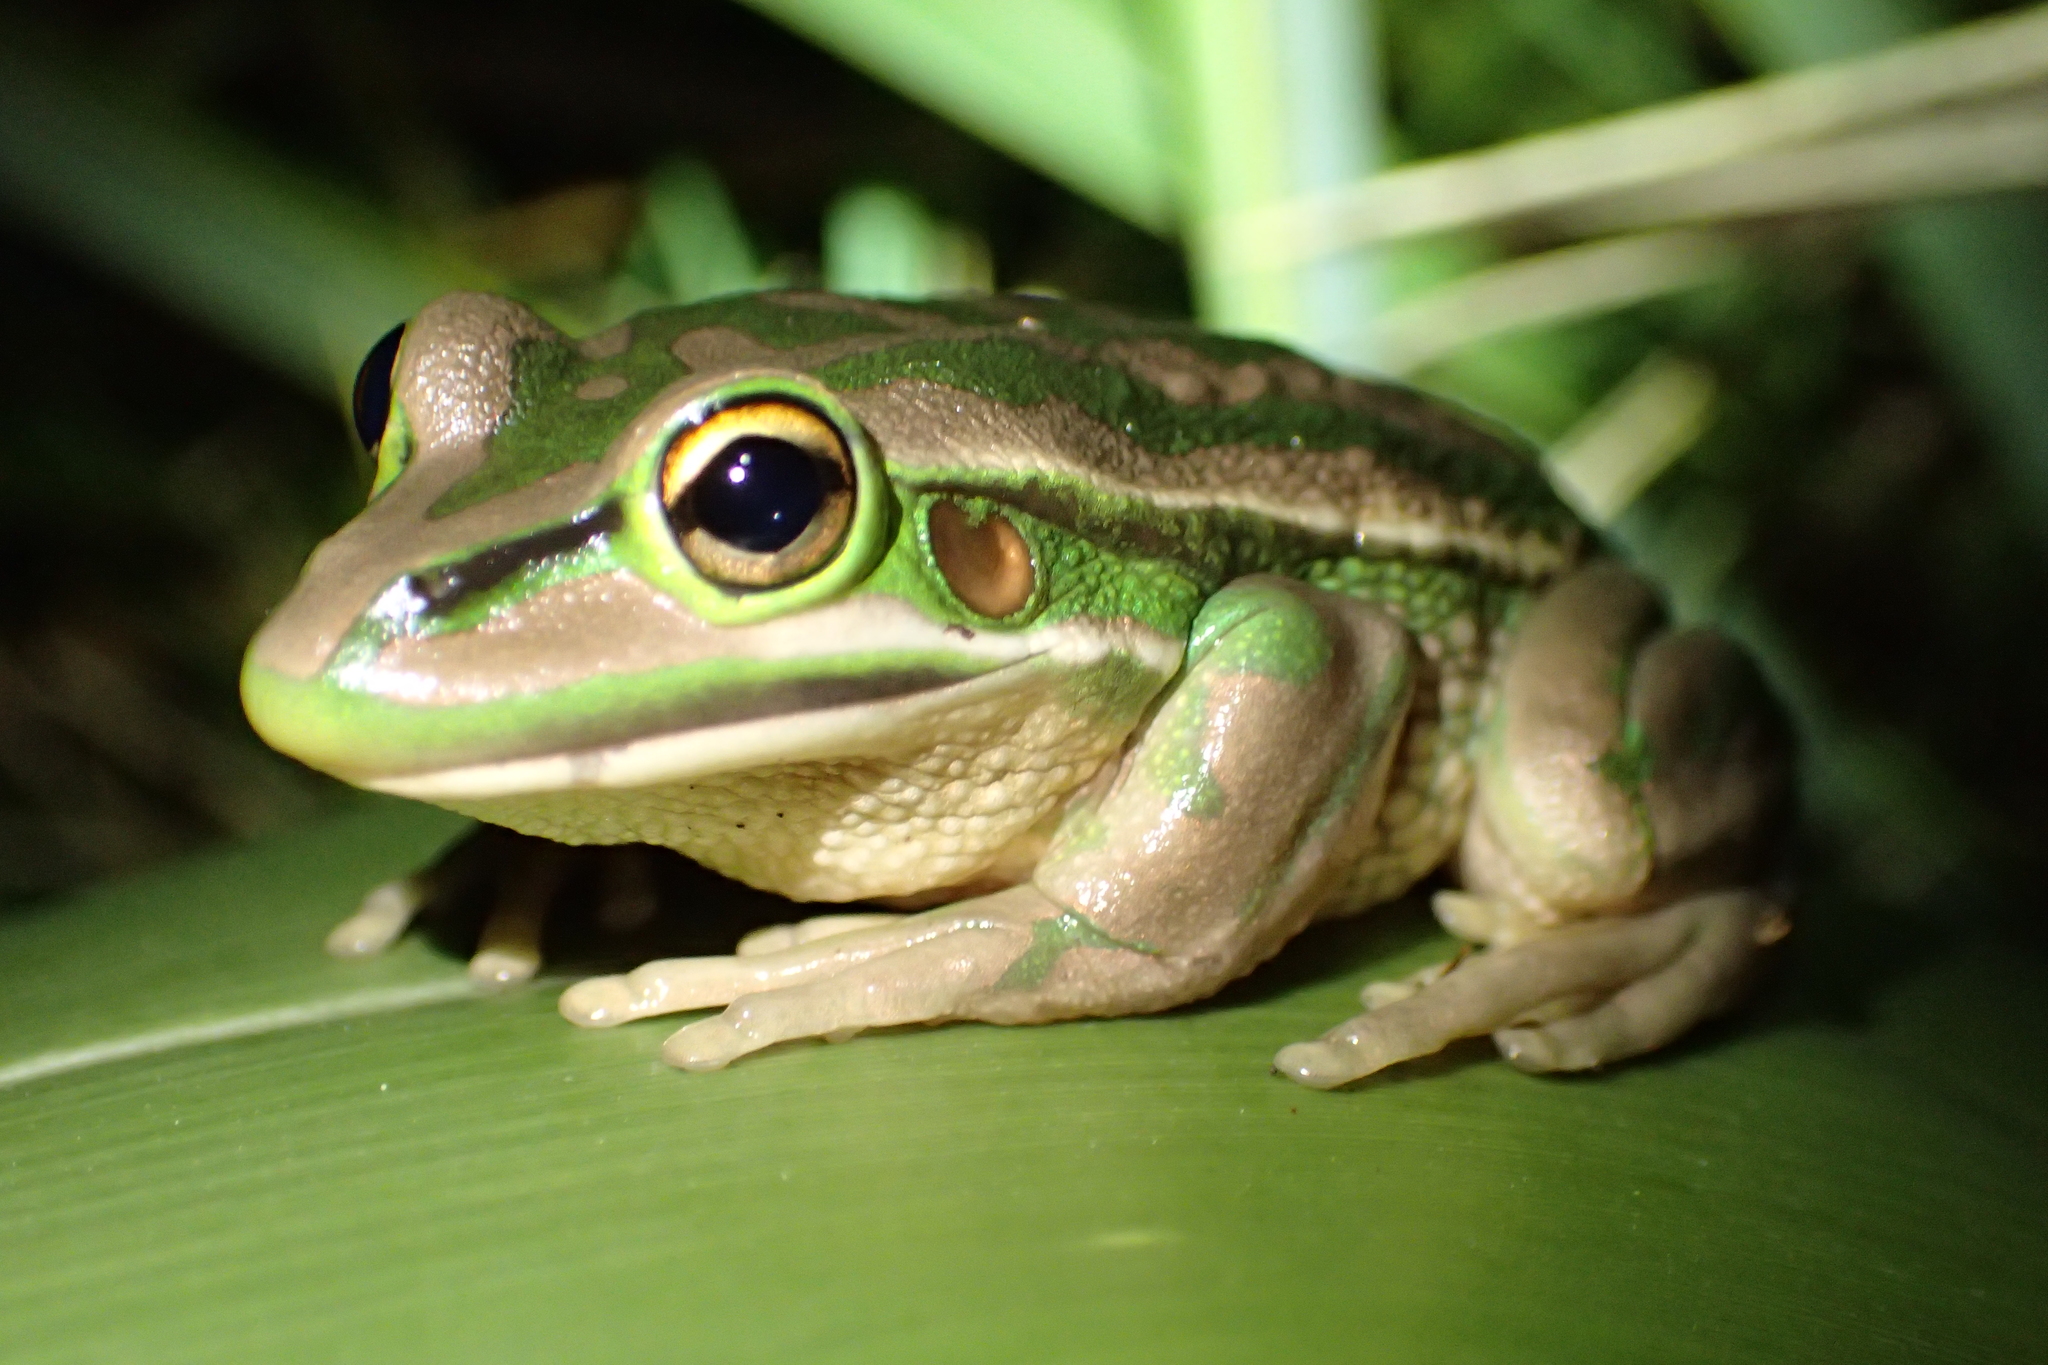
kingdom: Animalia
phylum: Chordata
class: Amphibia
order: Anura
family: Pelodryadidae
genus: Ranoidea
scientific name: Ranoidea aurea
